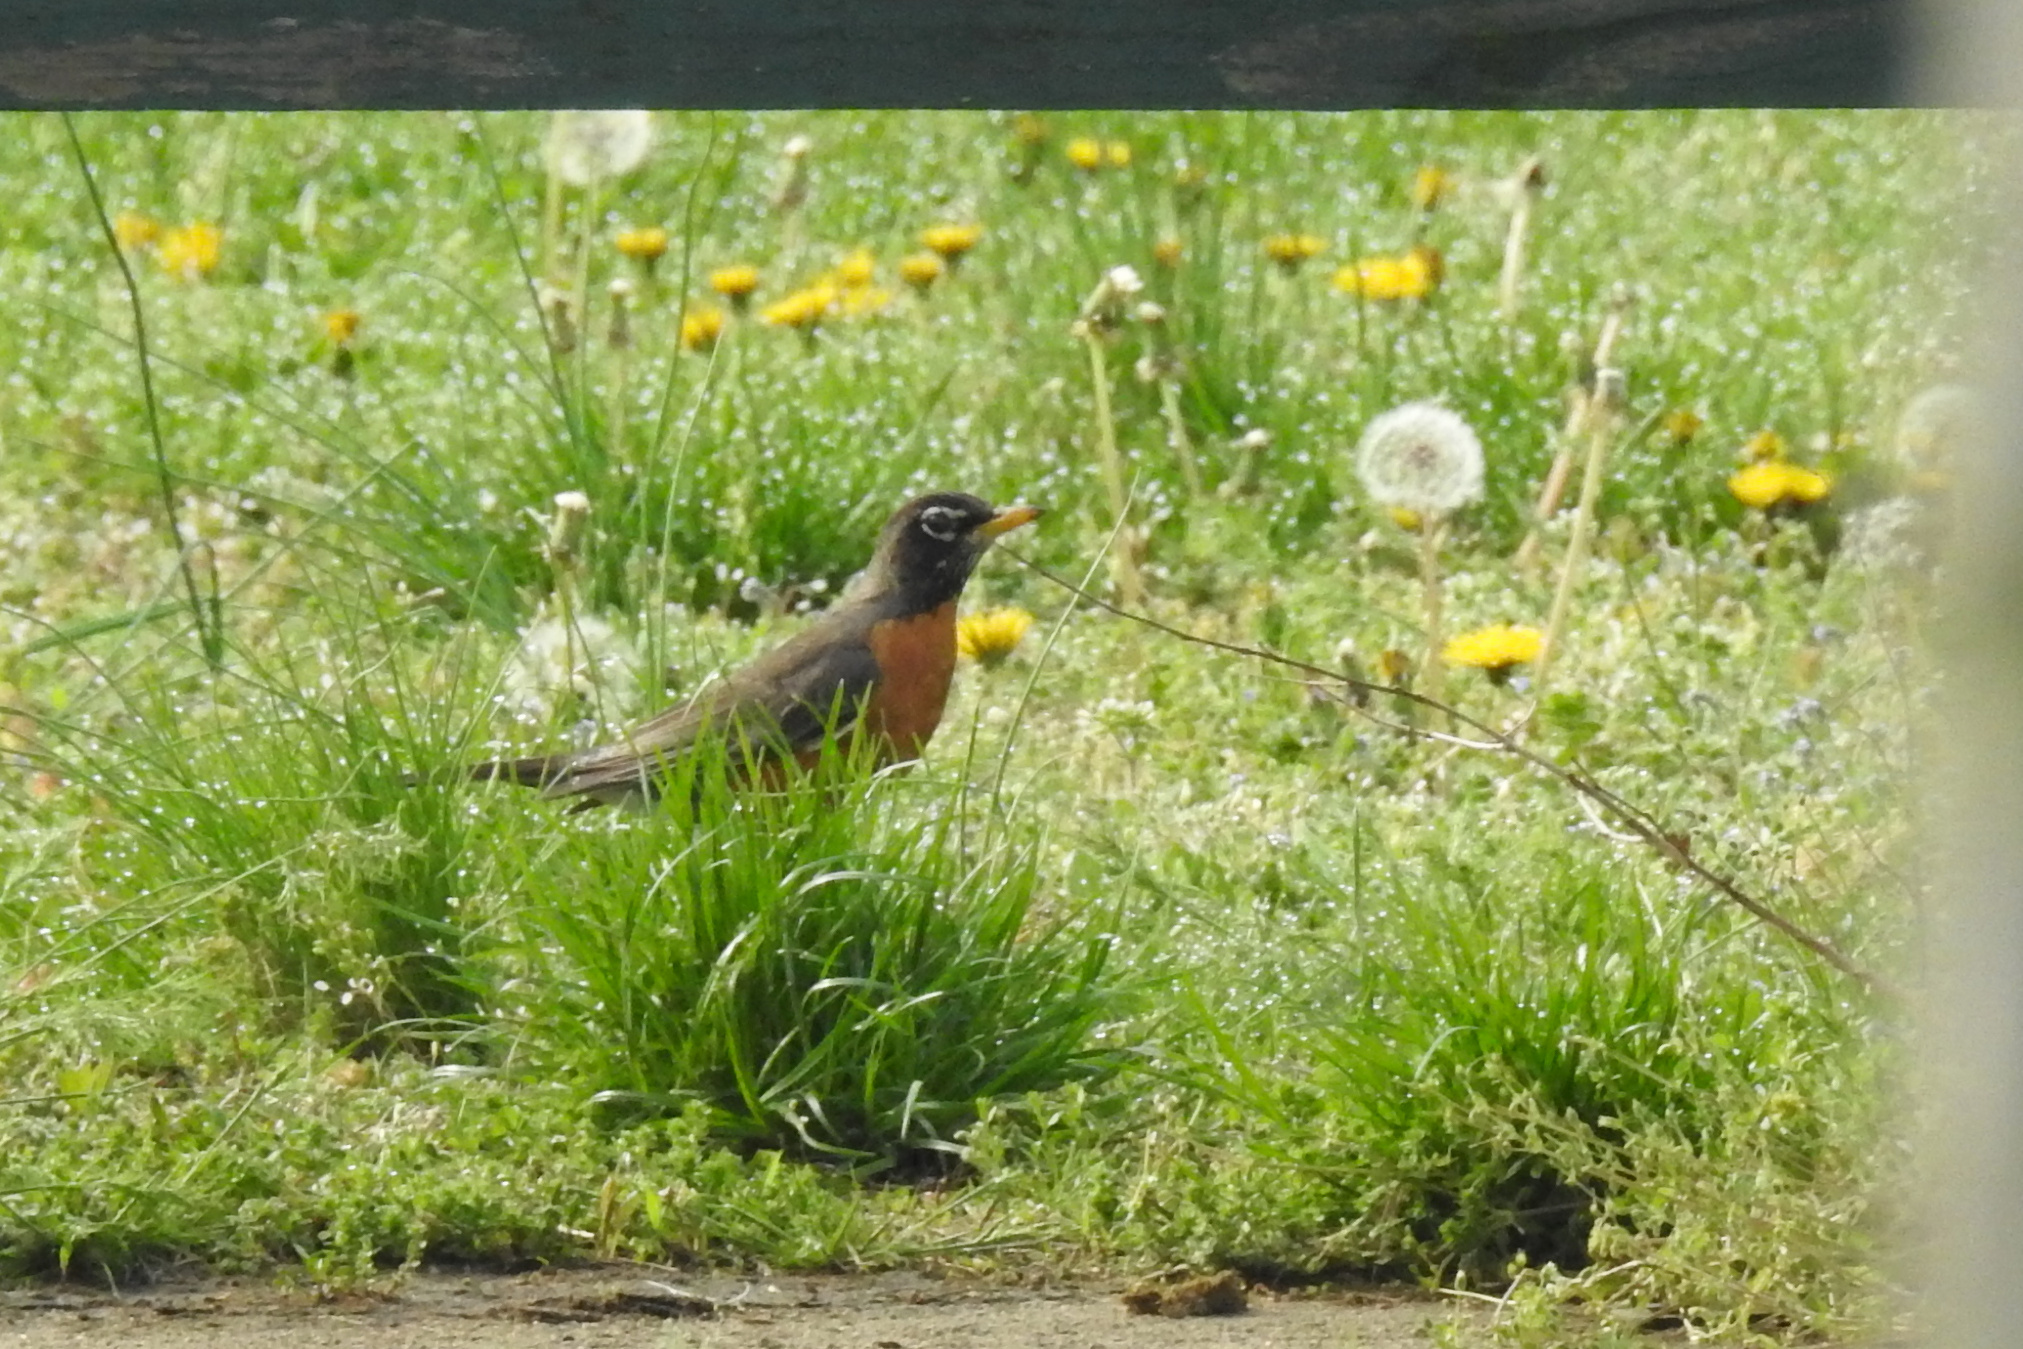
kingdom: Animalia
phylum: Chordata
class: Aves
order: Passeriformes
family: Turdidae
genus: Turdus
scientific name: Turdus migratorius
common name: American robin
